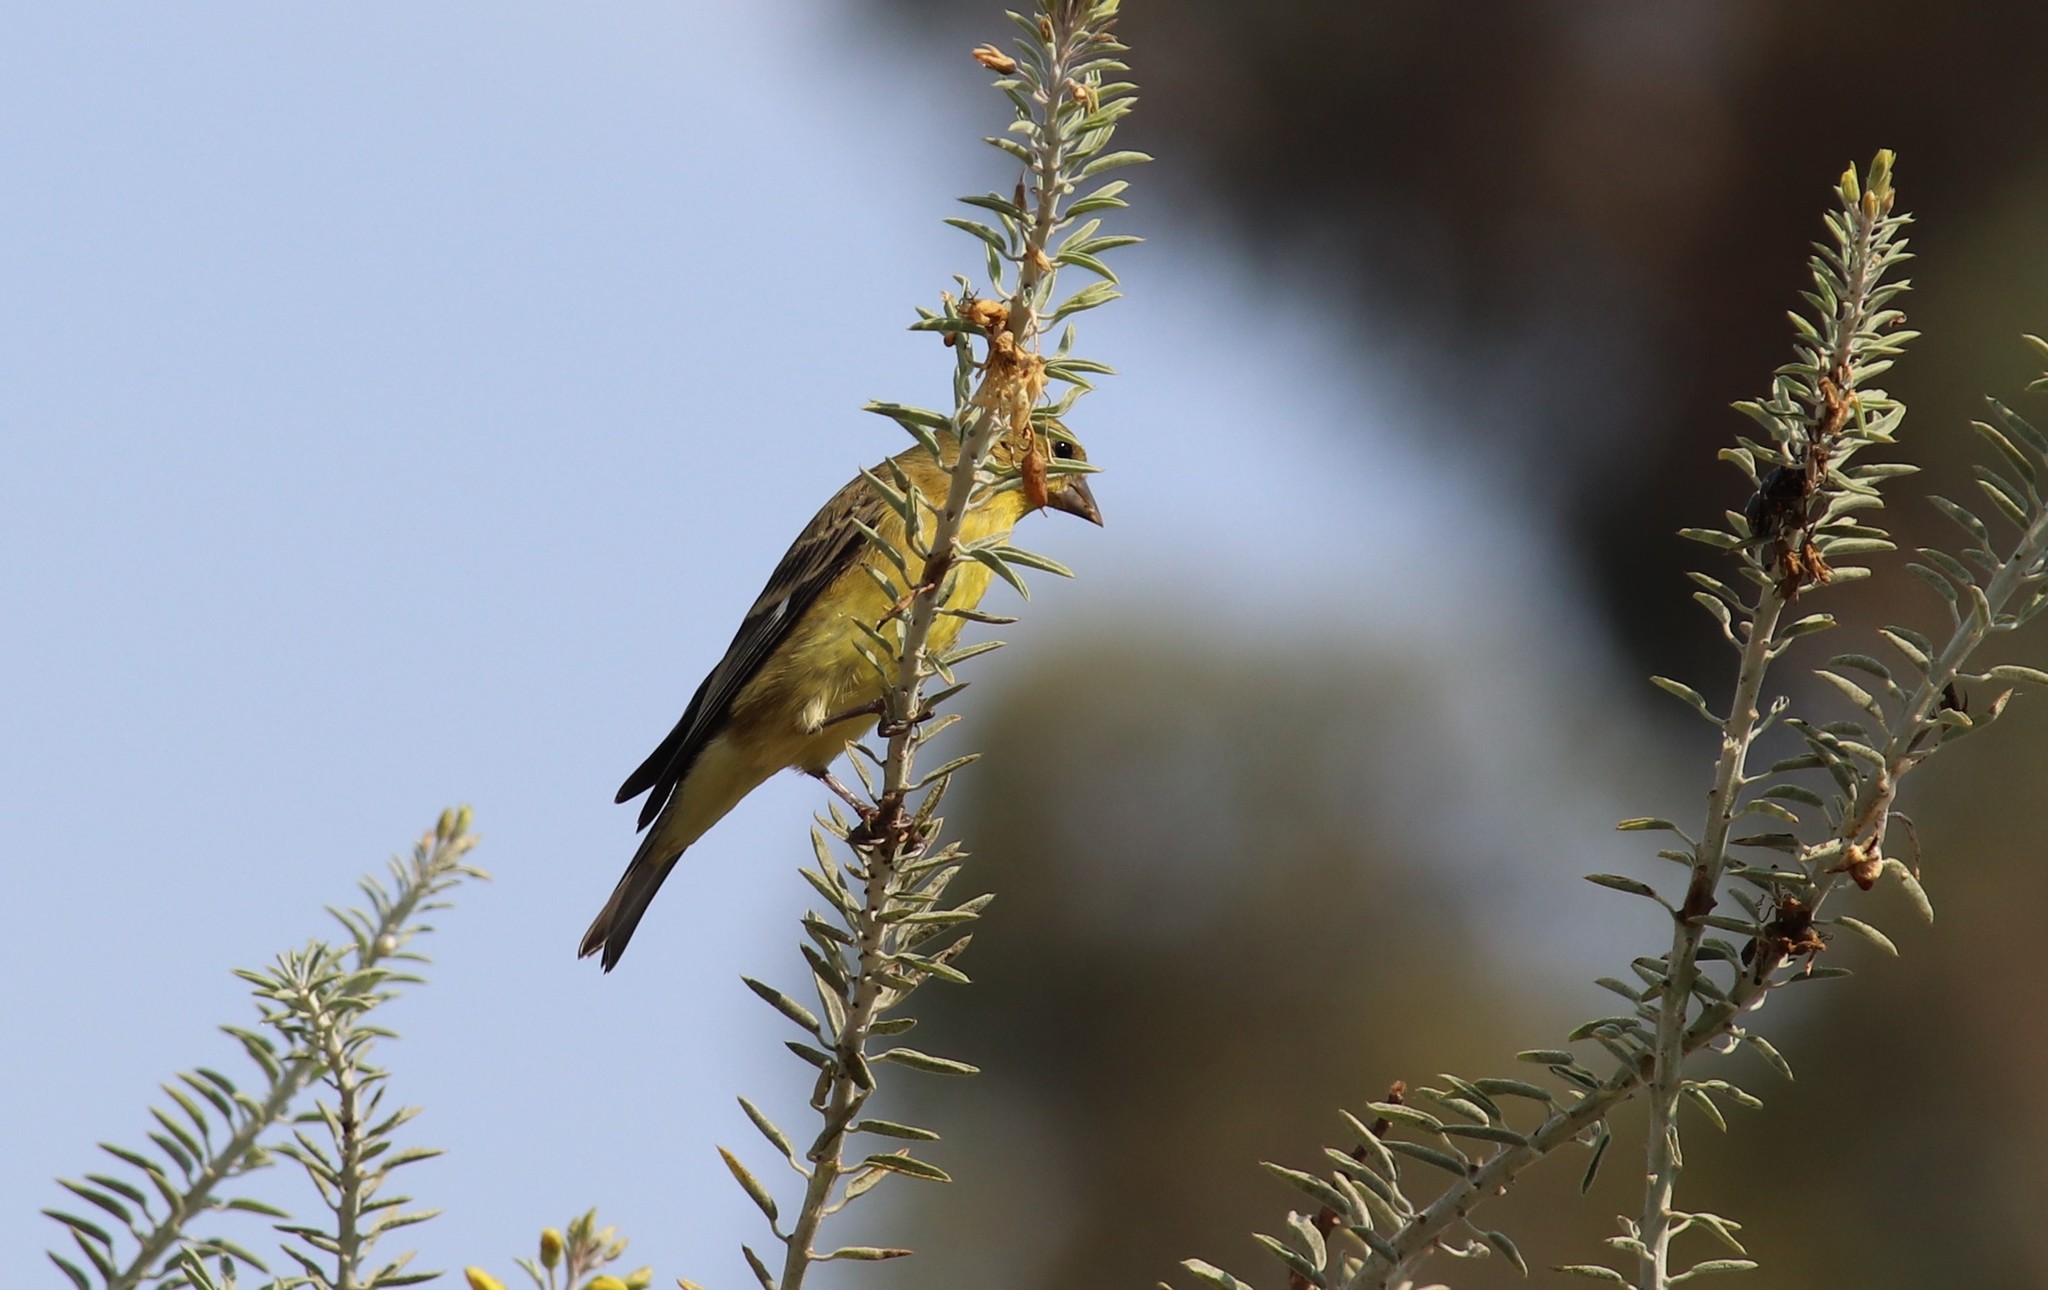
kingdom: Animalia
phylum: Chordata
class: Aves
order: Passeriformes
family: Fringillidae
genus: Spinus
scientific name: Spinus psaltria
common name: Lesser goldfinch
